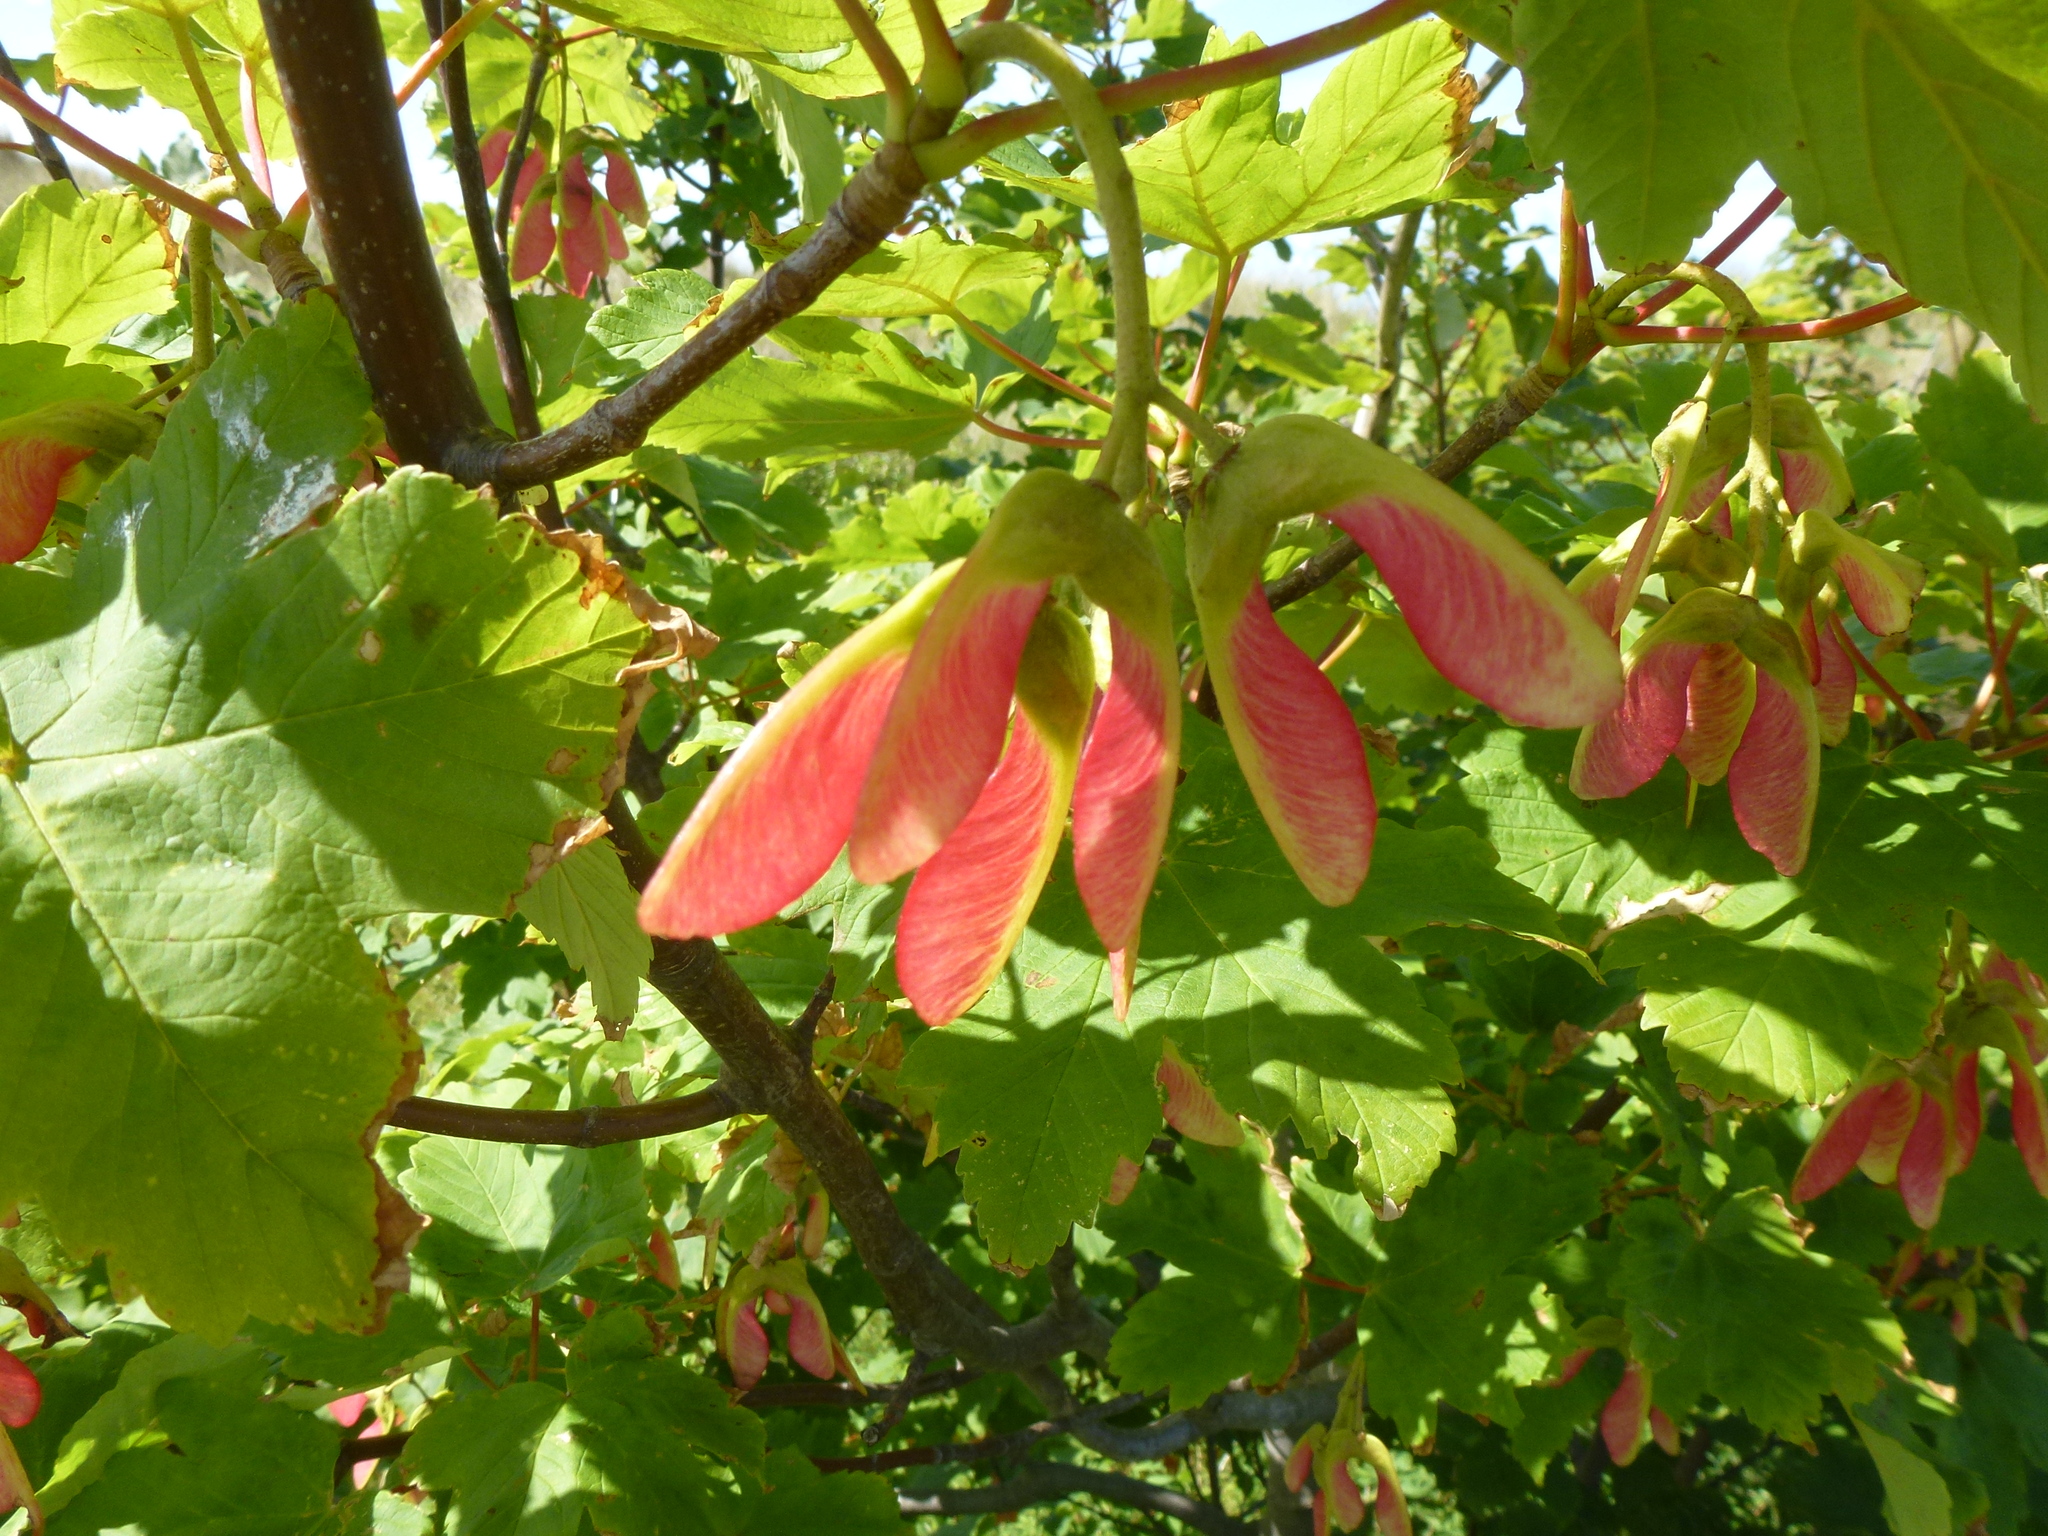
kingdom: Plantae
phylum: Tracheophyta
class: Magnoliopsida
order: Sapindales
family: Sapindaceae
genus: Acer
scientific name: Acer pseudoplatanus
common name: Sycamore
